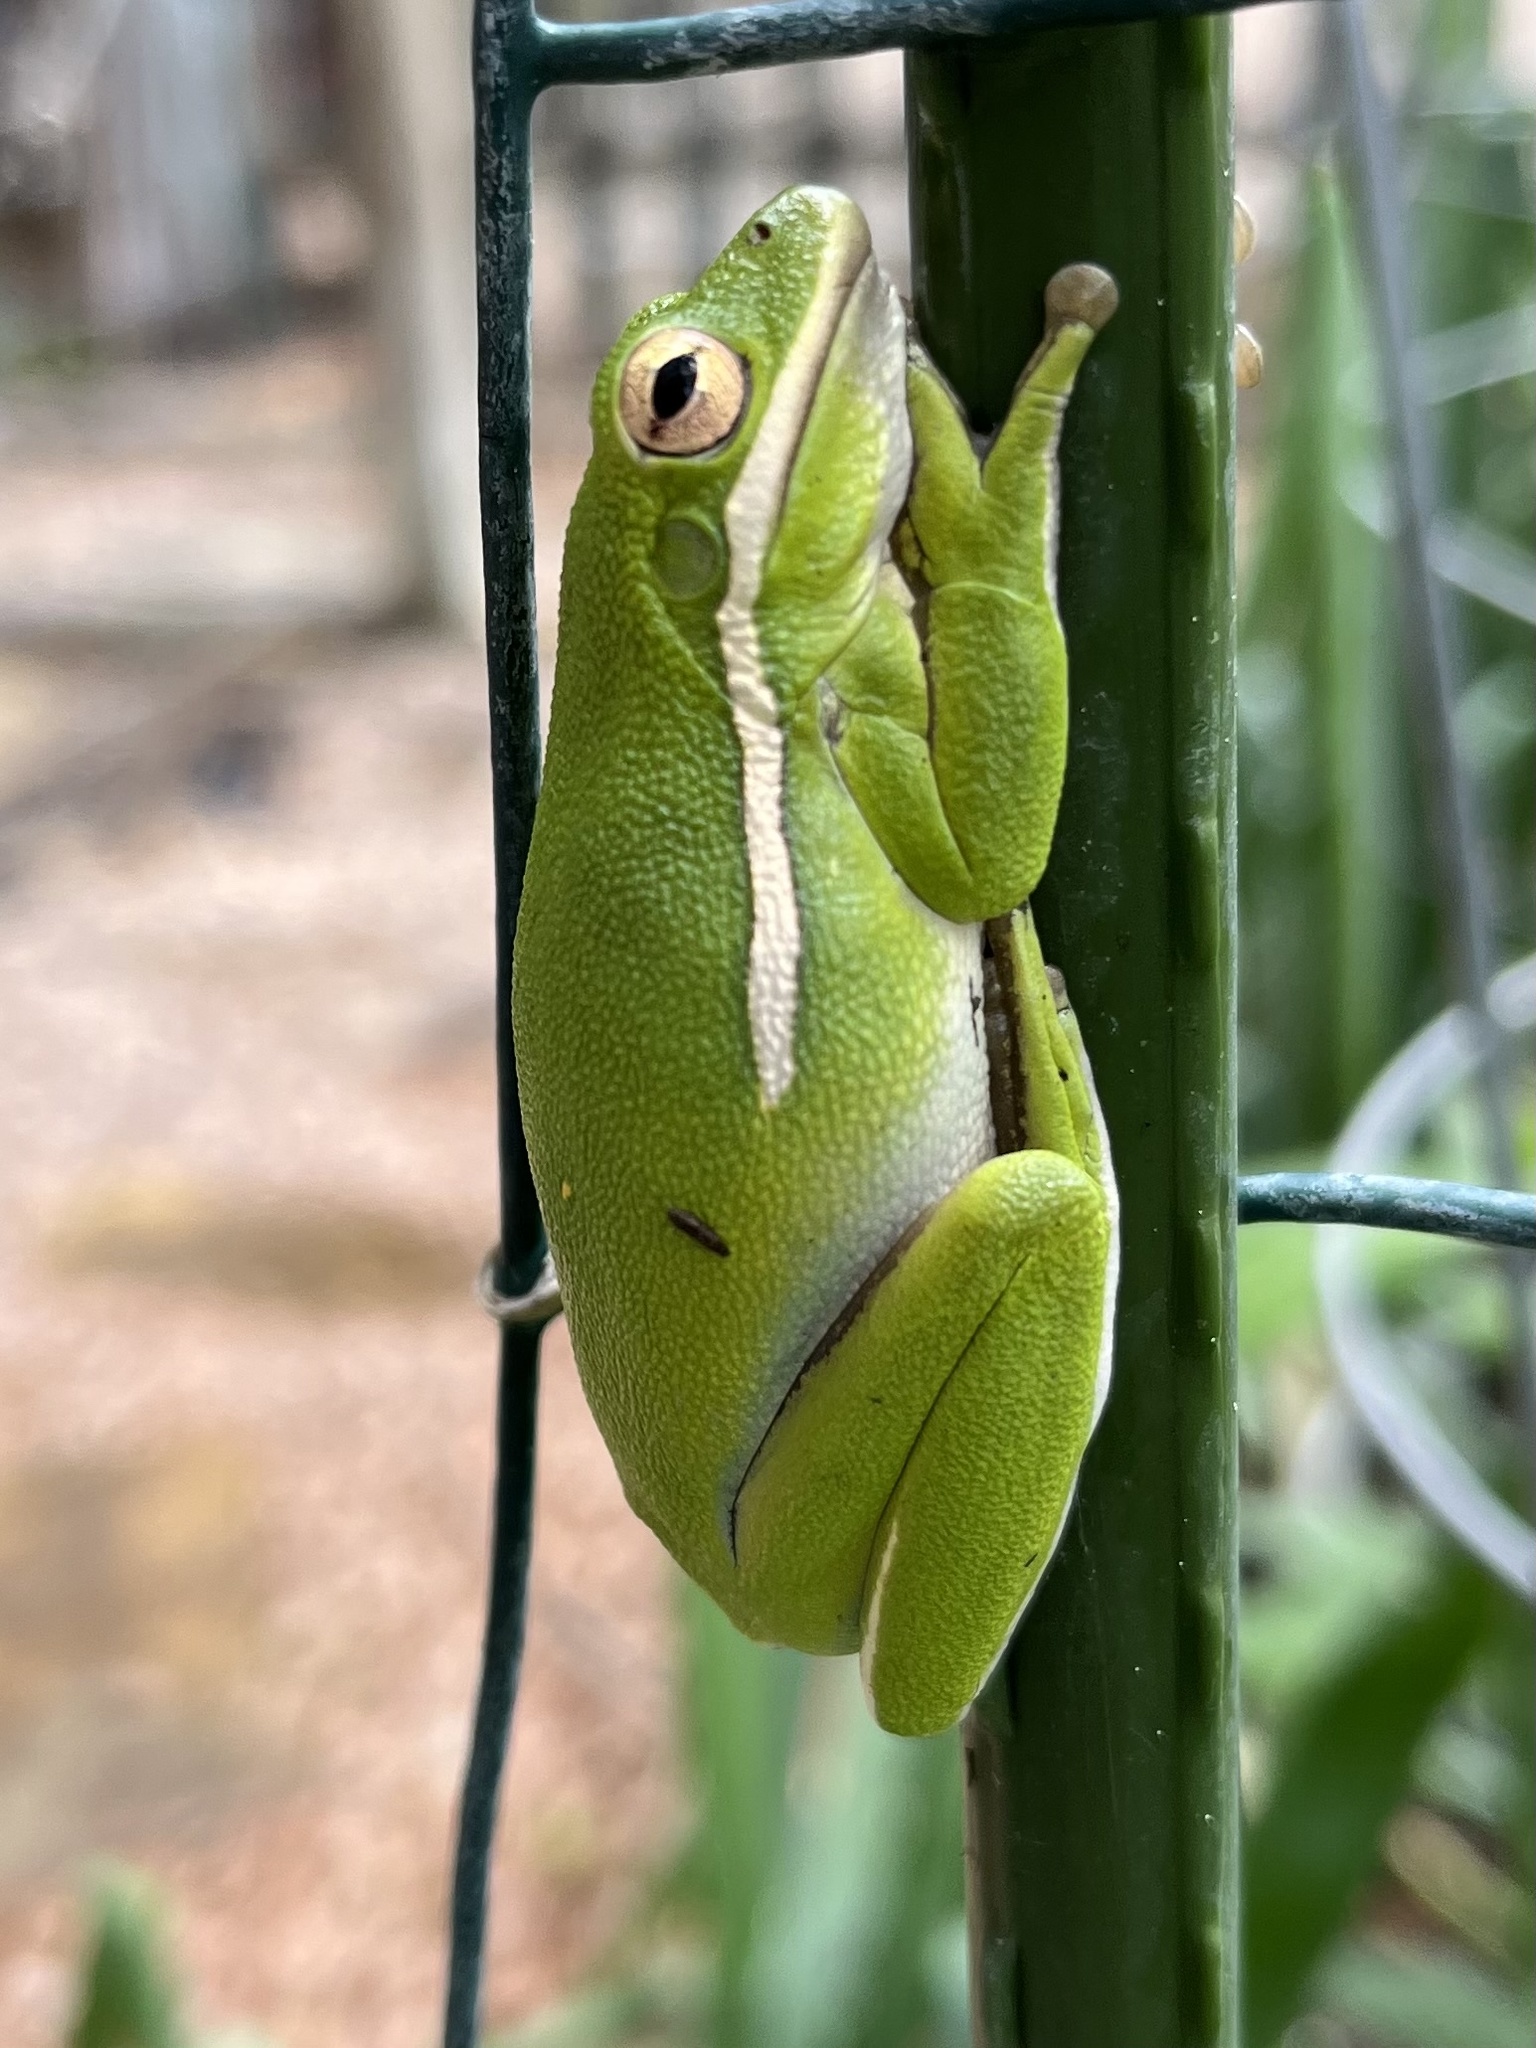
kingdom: Animalia
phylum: Chordata
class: Amphibia
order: Anura
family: Hylidae
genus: Dryophytes
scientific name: Dryophytes cinereus
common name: Green treefrog
